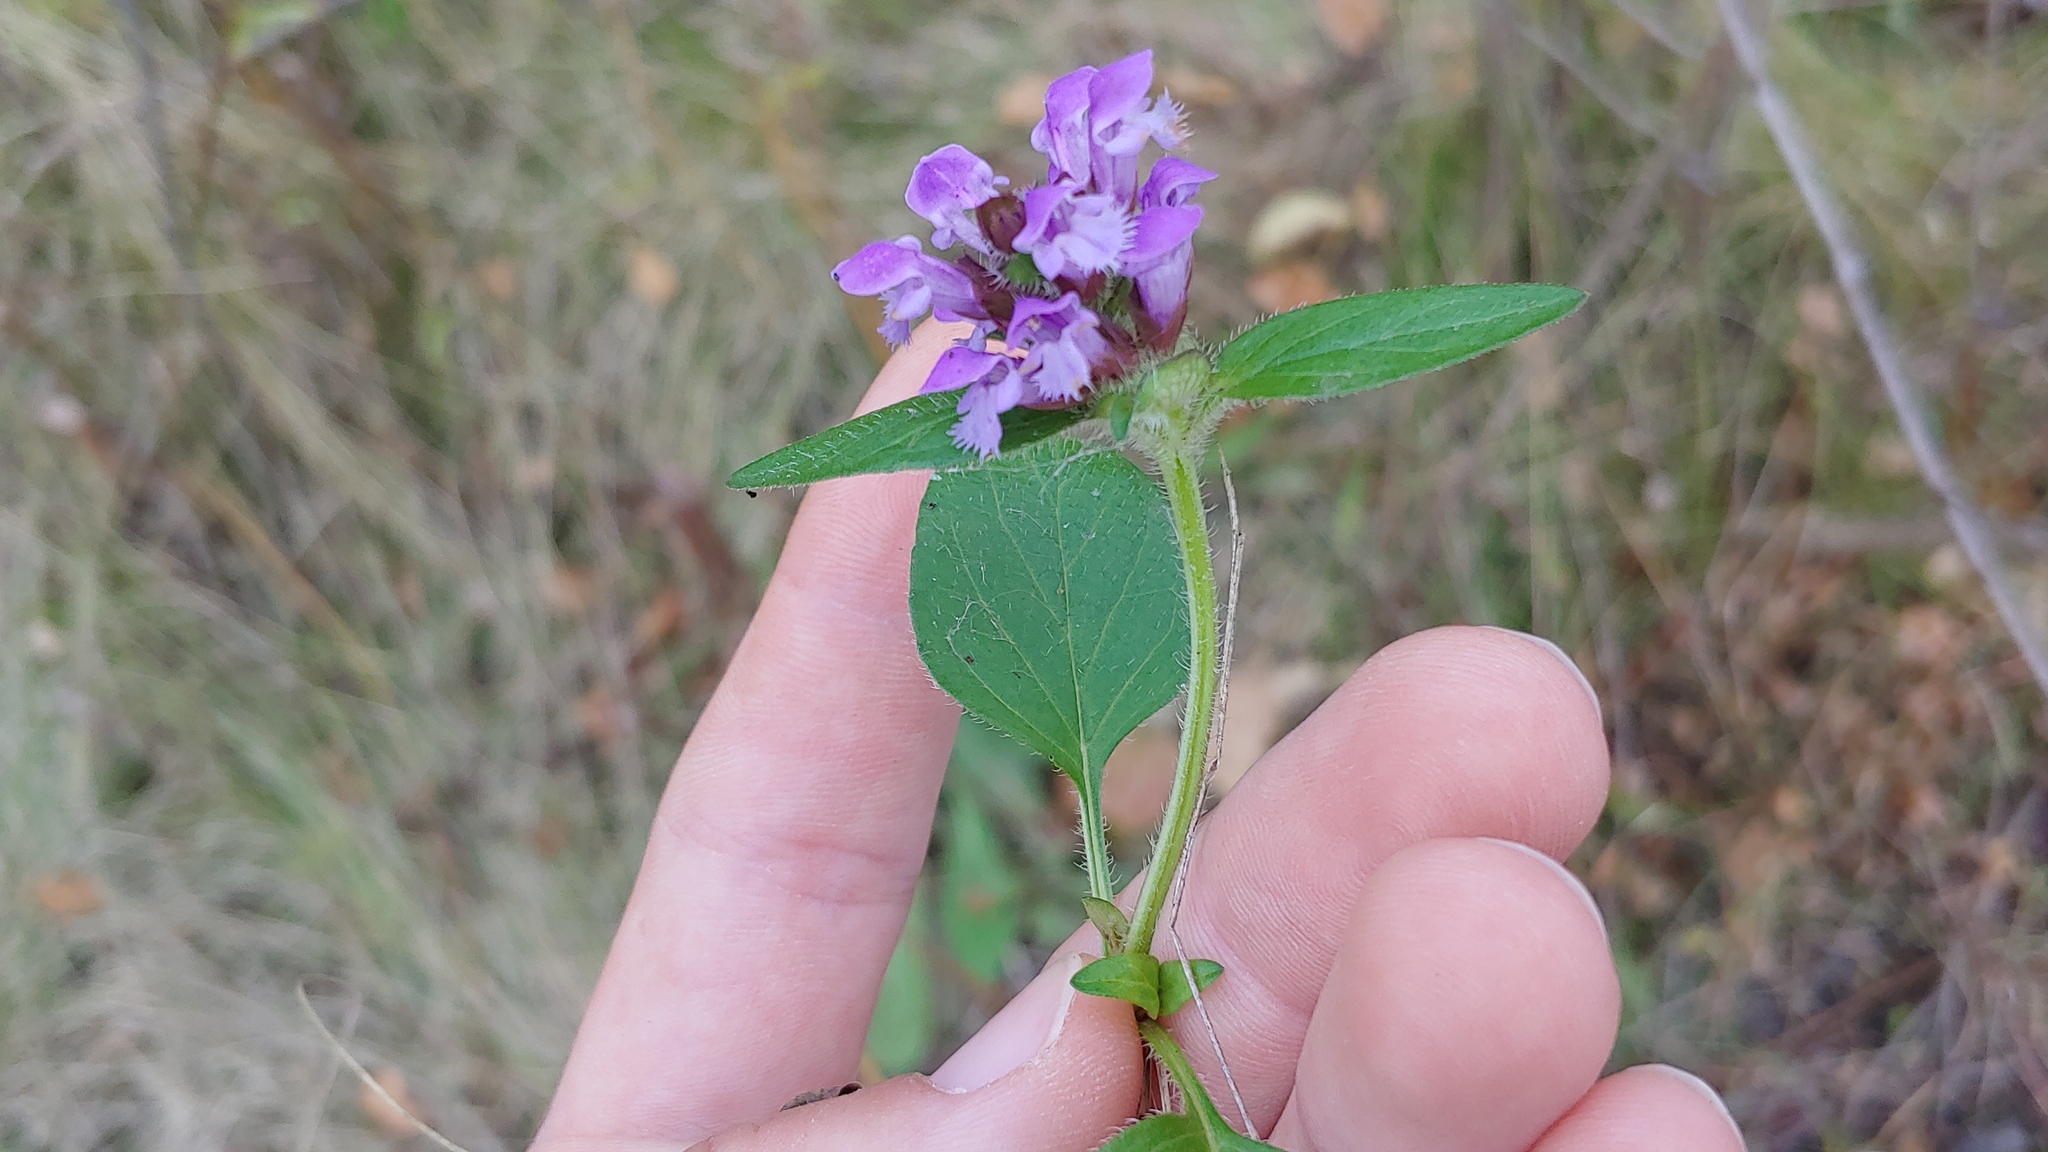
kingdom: Plantae
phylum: Tracheophyta
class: Magnoliopsida
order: Lamiales
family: Lamiaceae
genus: Prunella
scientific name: Prunella vulgaris
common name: Heal-all
